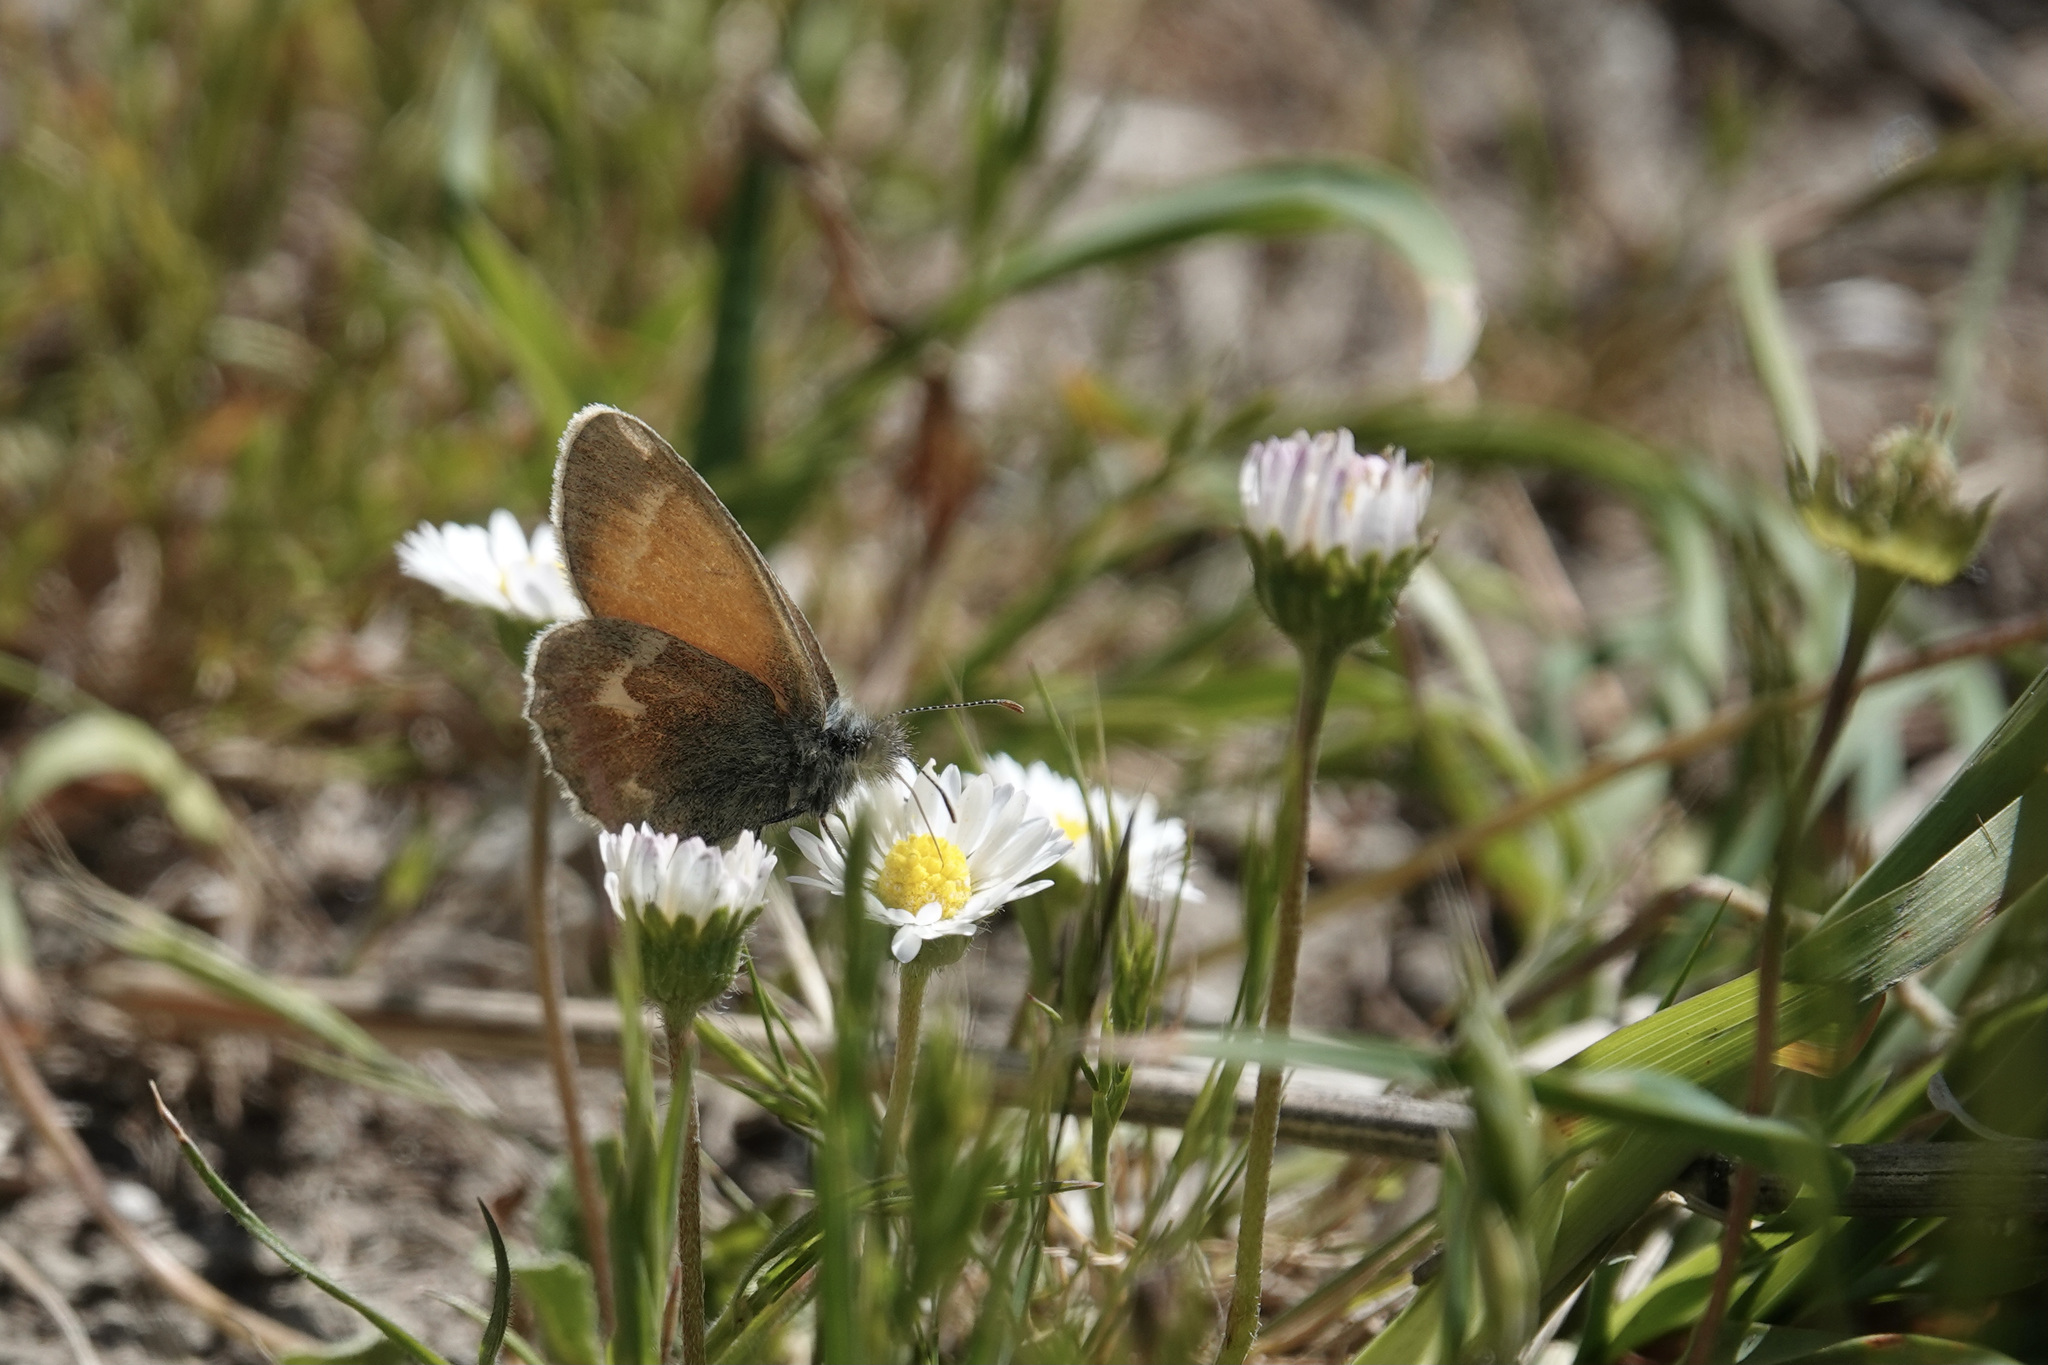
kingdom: Plantae
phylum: Tracheophyta
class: Magnoliopsida
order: Asterales
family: Asteraceae
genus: Bellis
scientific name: Bellis perennis
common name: Lawndaisy
